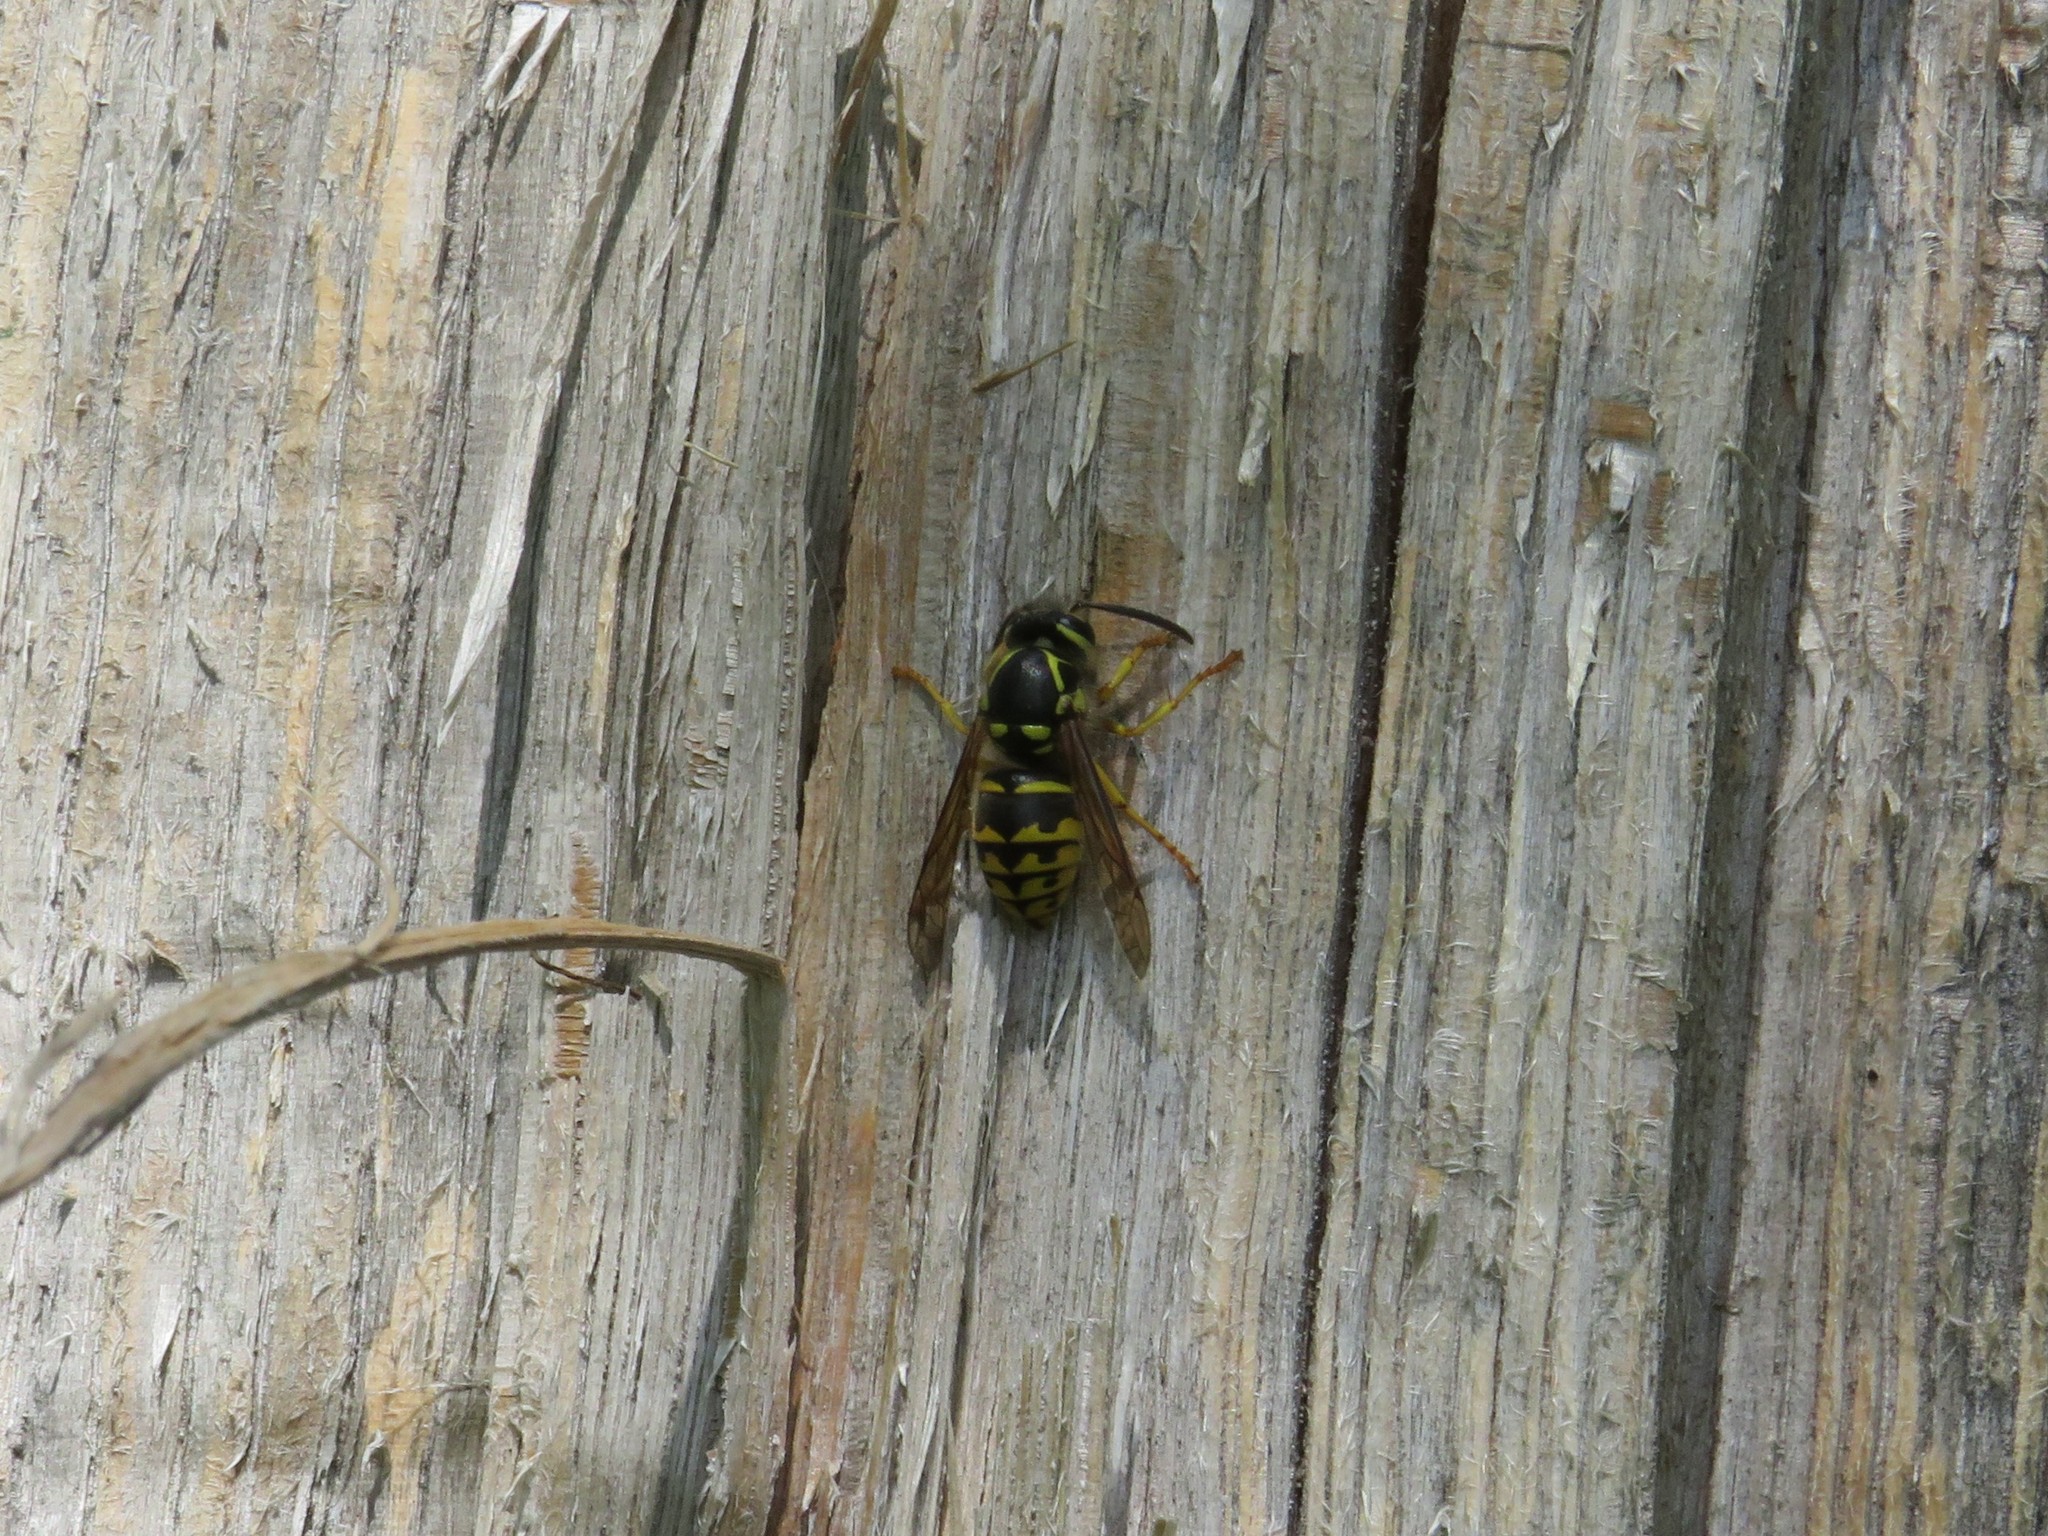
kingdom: Animalia
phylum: Arthropoda
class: Insecta
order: Hymenoptera
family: Vespidae
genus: Dolichovespula
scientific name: Dolichovespula arenaria
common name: Aerial yellowjacket
